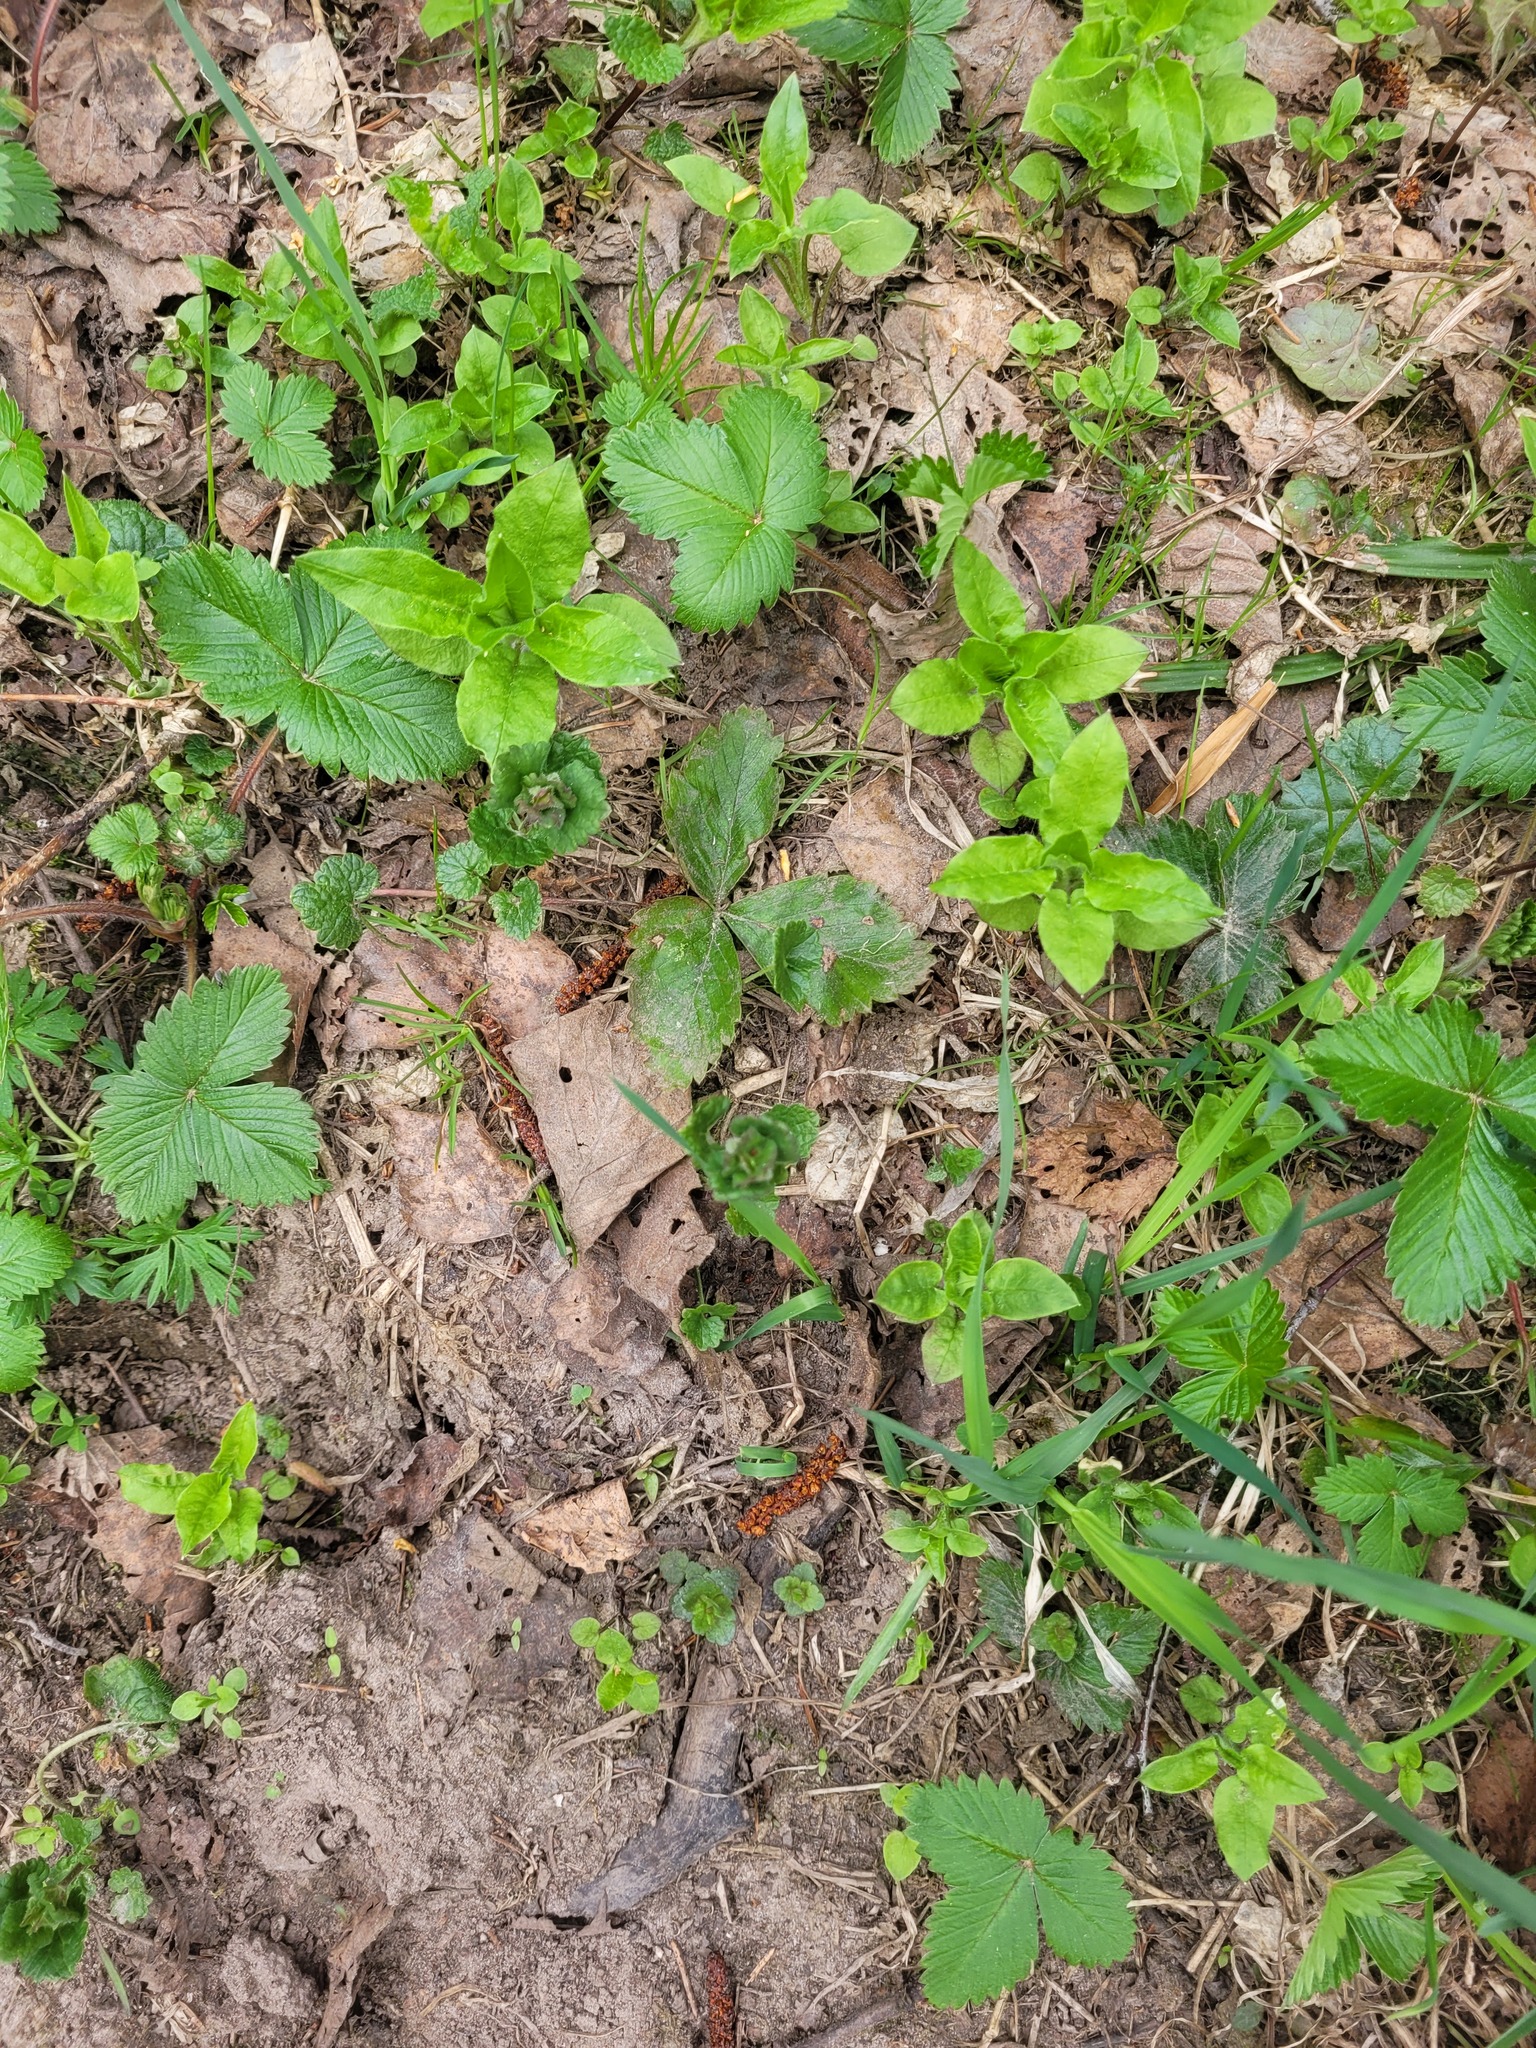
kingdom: Plantae
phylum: Tracheophyta
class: Magnoliopsida
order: Lamiales
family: Lamiaceae
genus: Glechoma
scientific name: Glechoma hederacea
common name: Ground ivy
